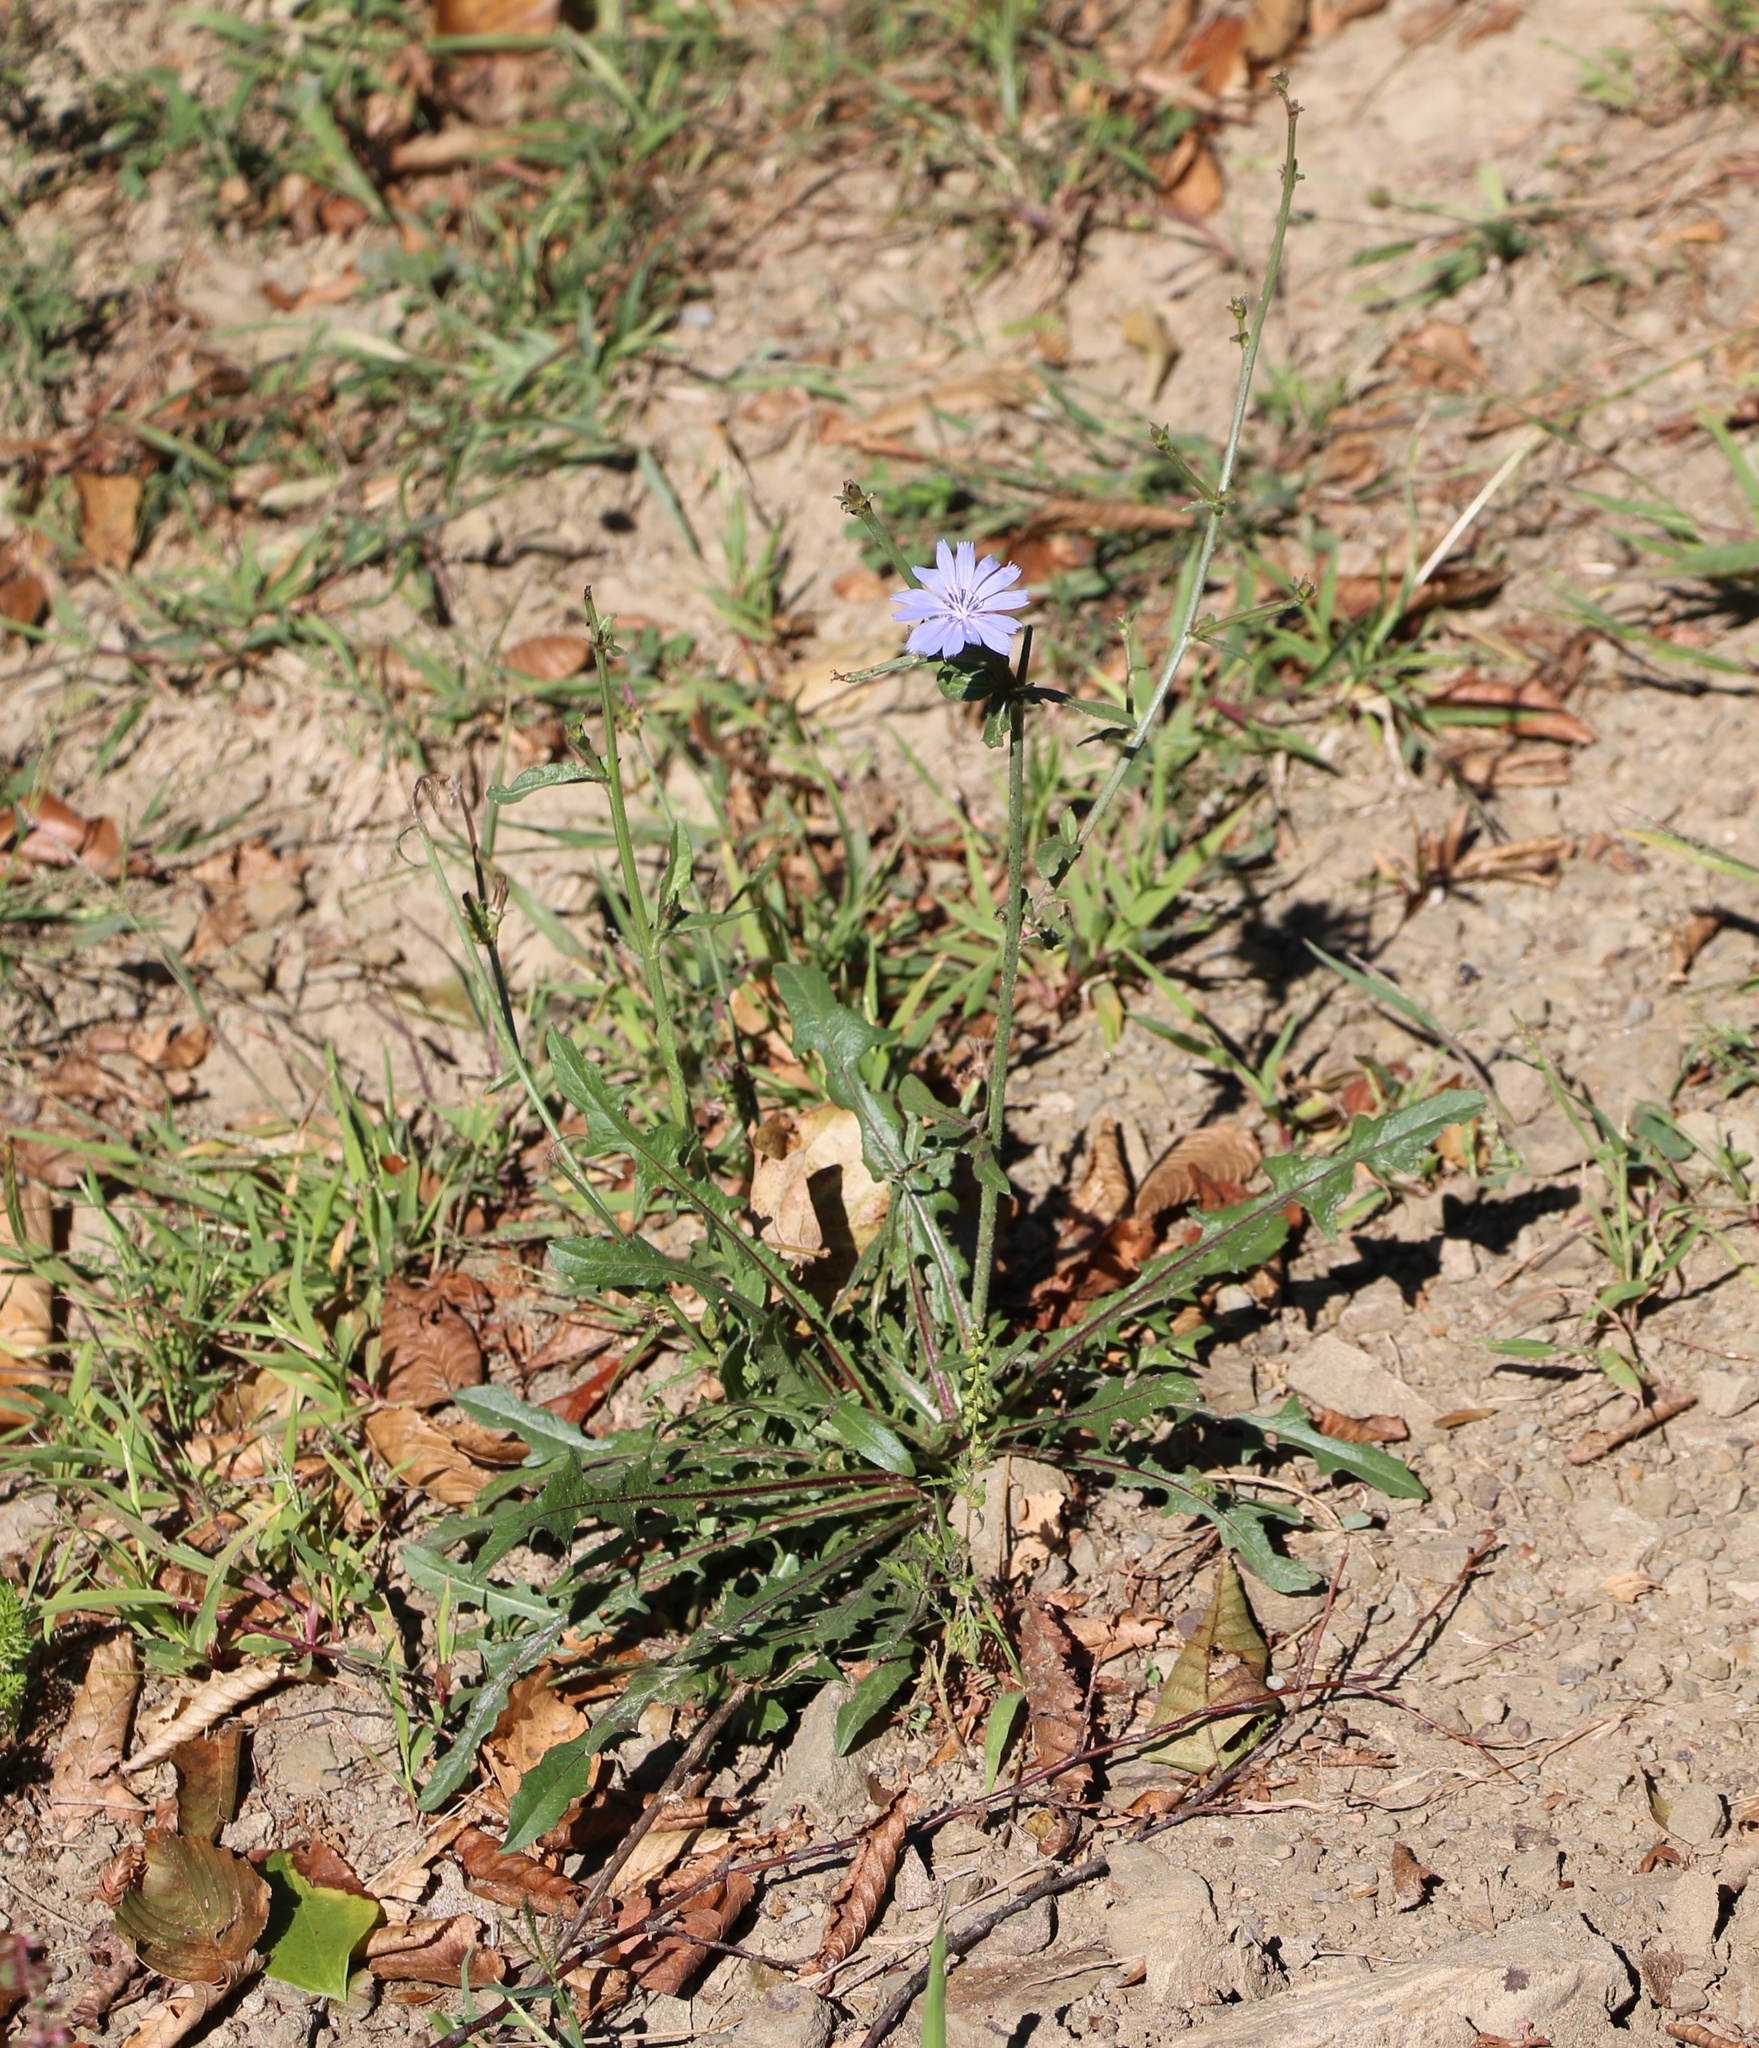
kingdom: Plantae
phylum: Tracheophyta
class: Magnoliopsida
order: Asterales
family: Asteraceae
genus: Cichorium
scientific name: Cichorium intybus
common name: Chicory
